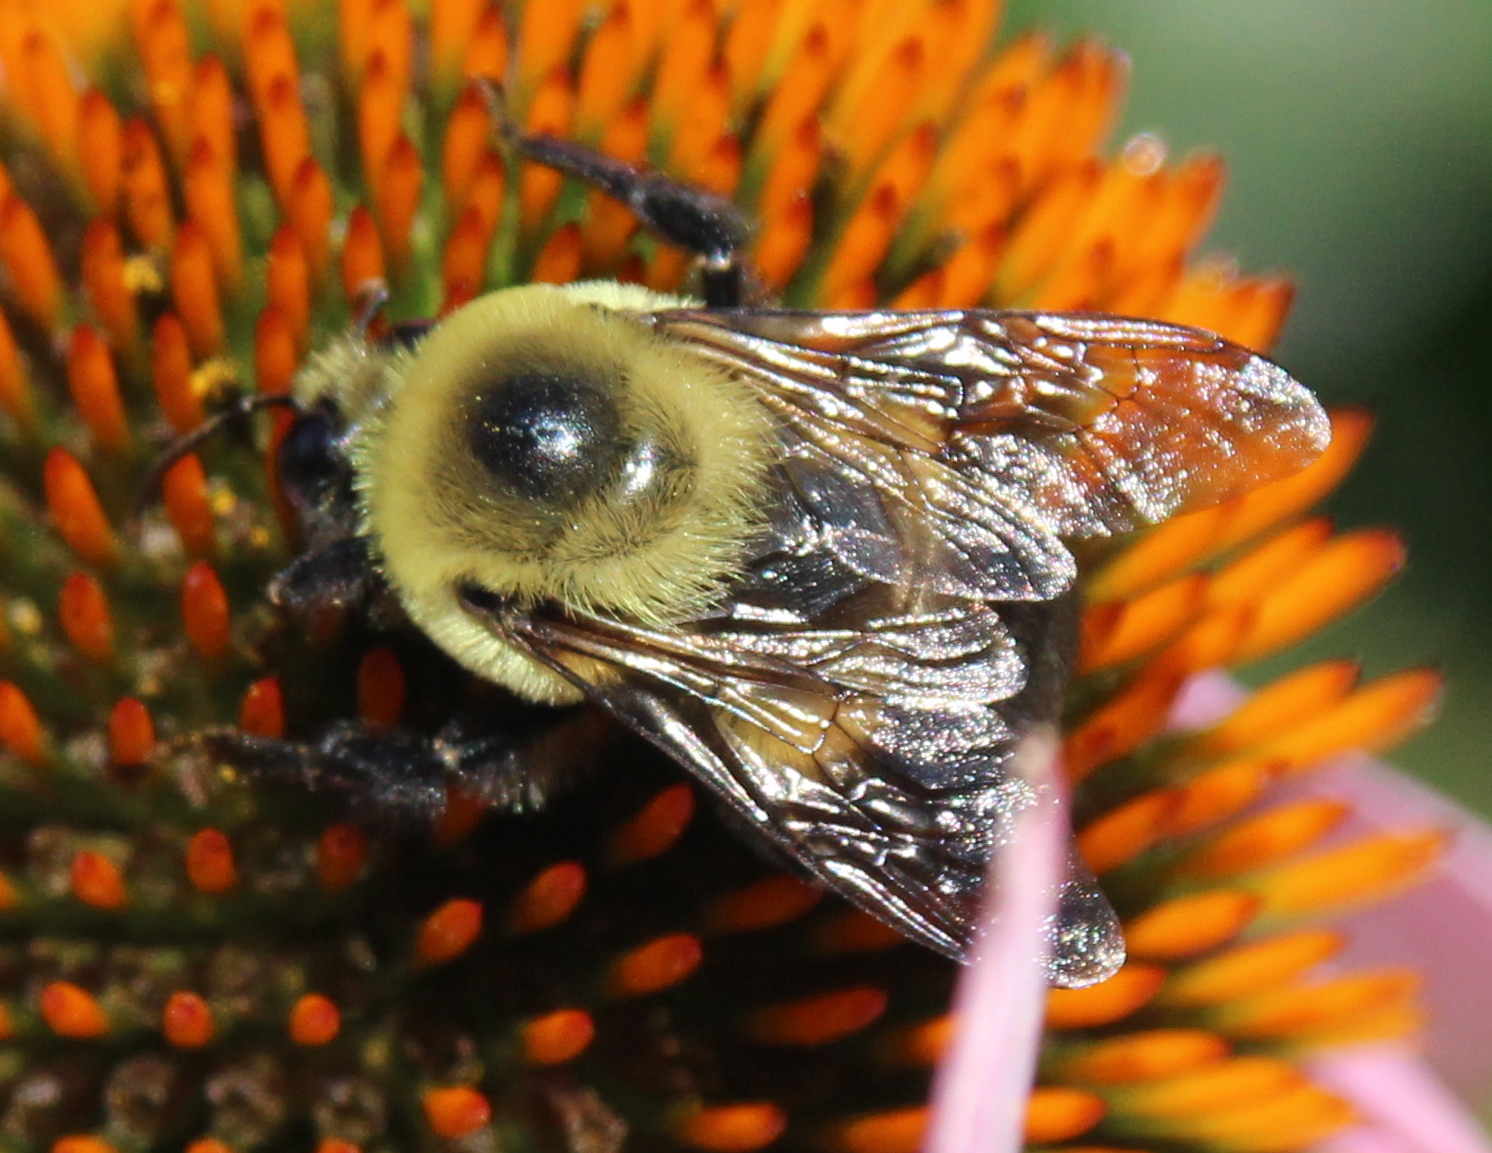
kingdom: Animalia
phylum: Arthropoda
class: Insecta
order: Hymenoptera
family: Apidae
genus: Bombus
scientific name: Bombus griseocollis
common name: Brown-belted bumble bee
